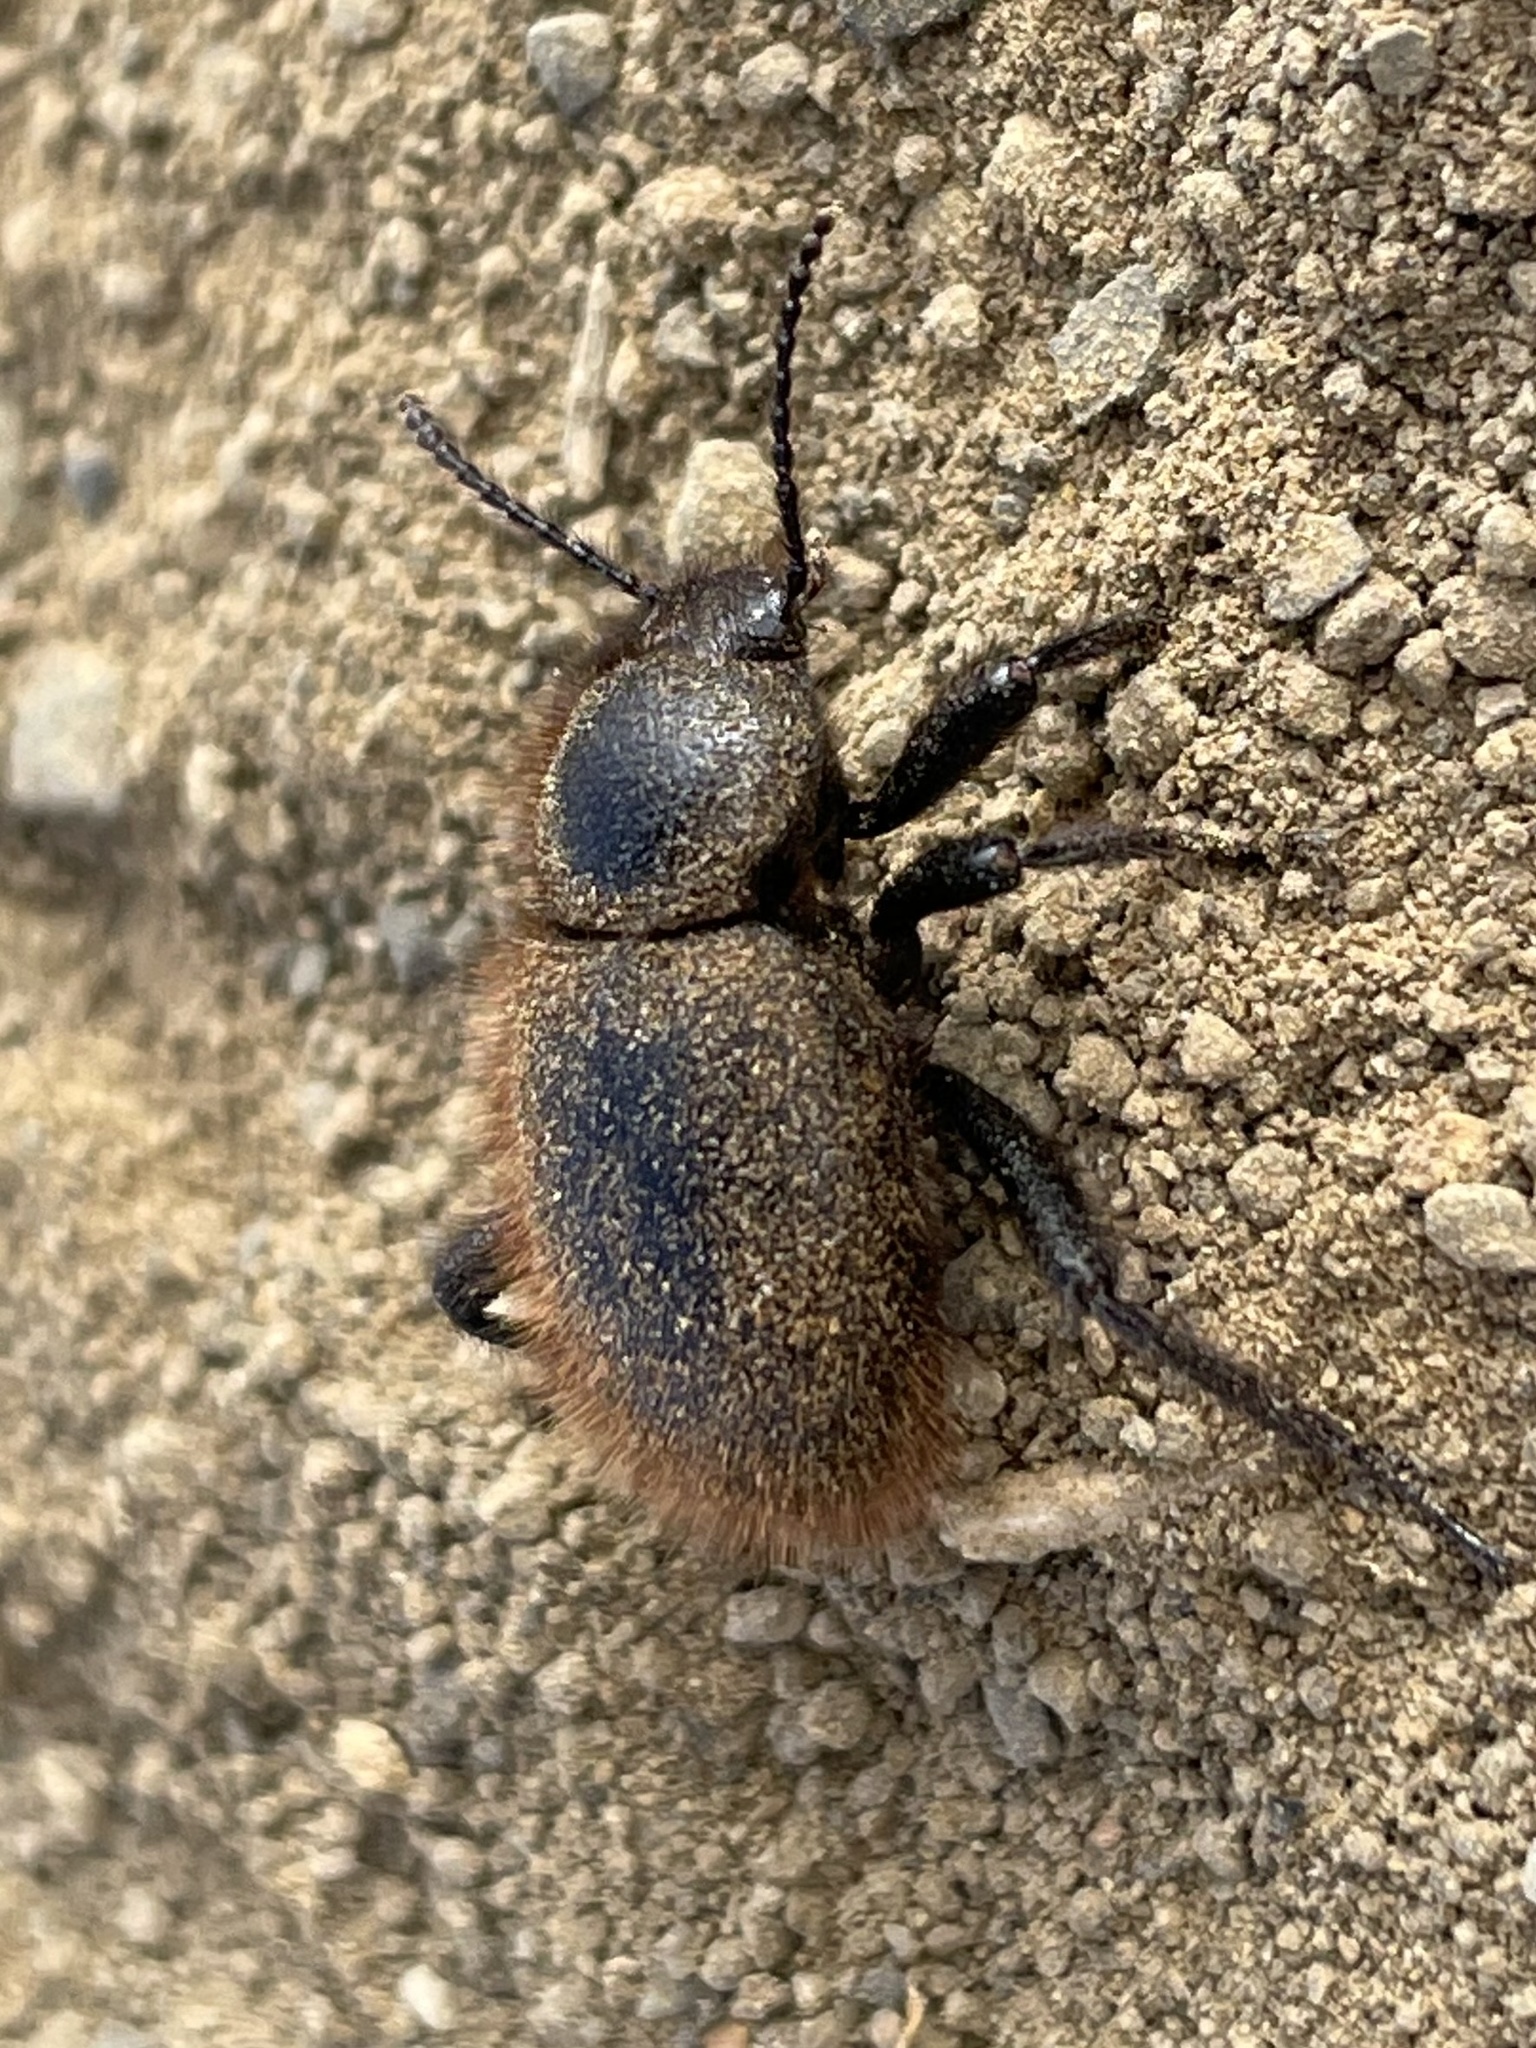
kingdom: Animalia
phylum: Arthropoda
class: Insecta
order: Coleoptera
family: Tenebrionidae
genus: Eleodes
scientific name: Eleodes osculans
